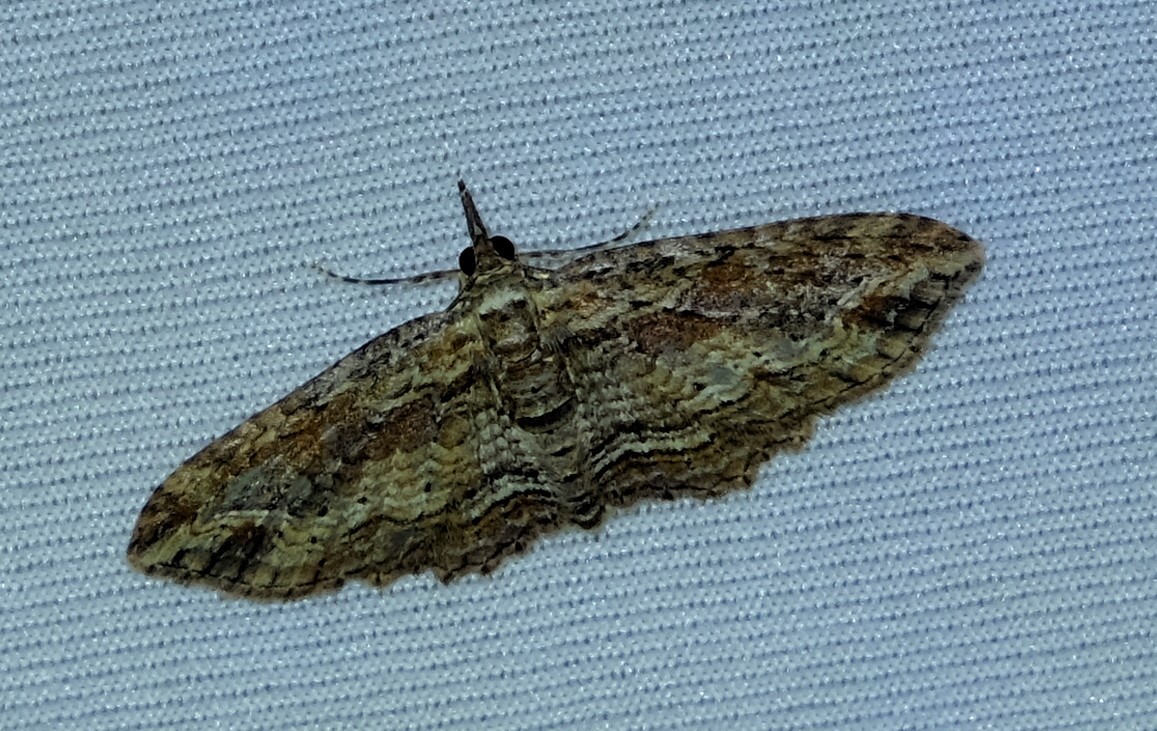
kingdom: Animalia
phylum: Arthropoda
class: Insecta
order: Lepidoptera
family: Geometridae
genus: Chloroclystis
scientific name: Chloroclystis filata
